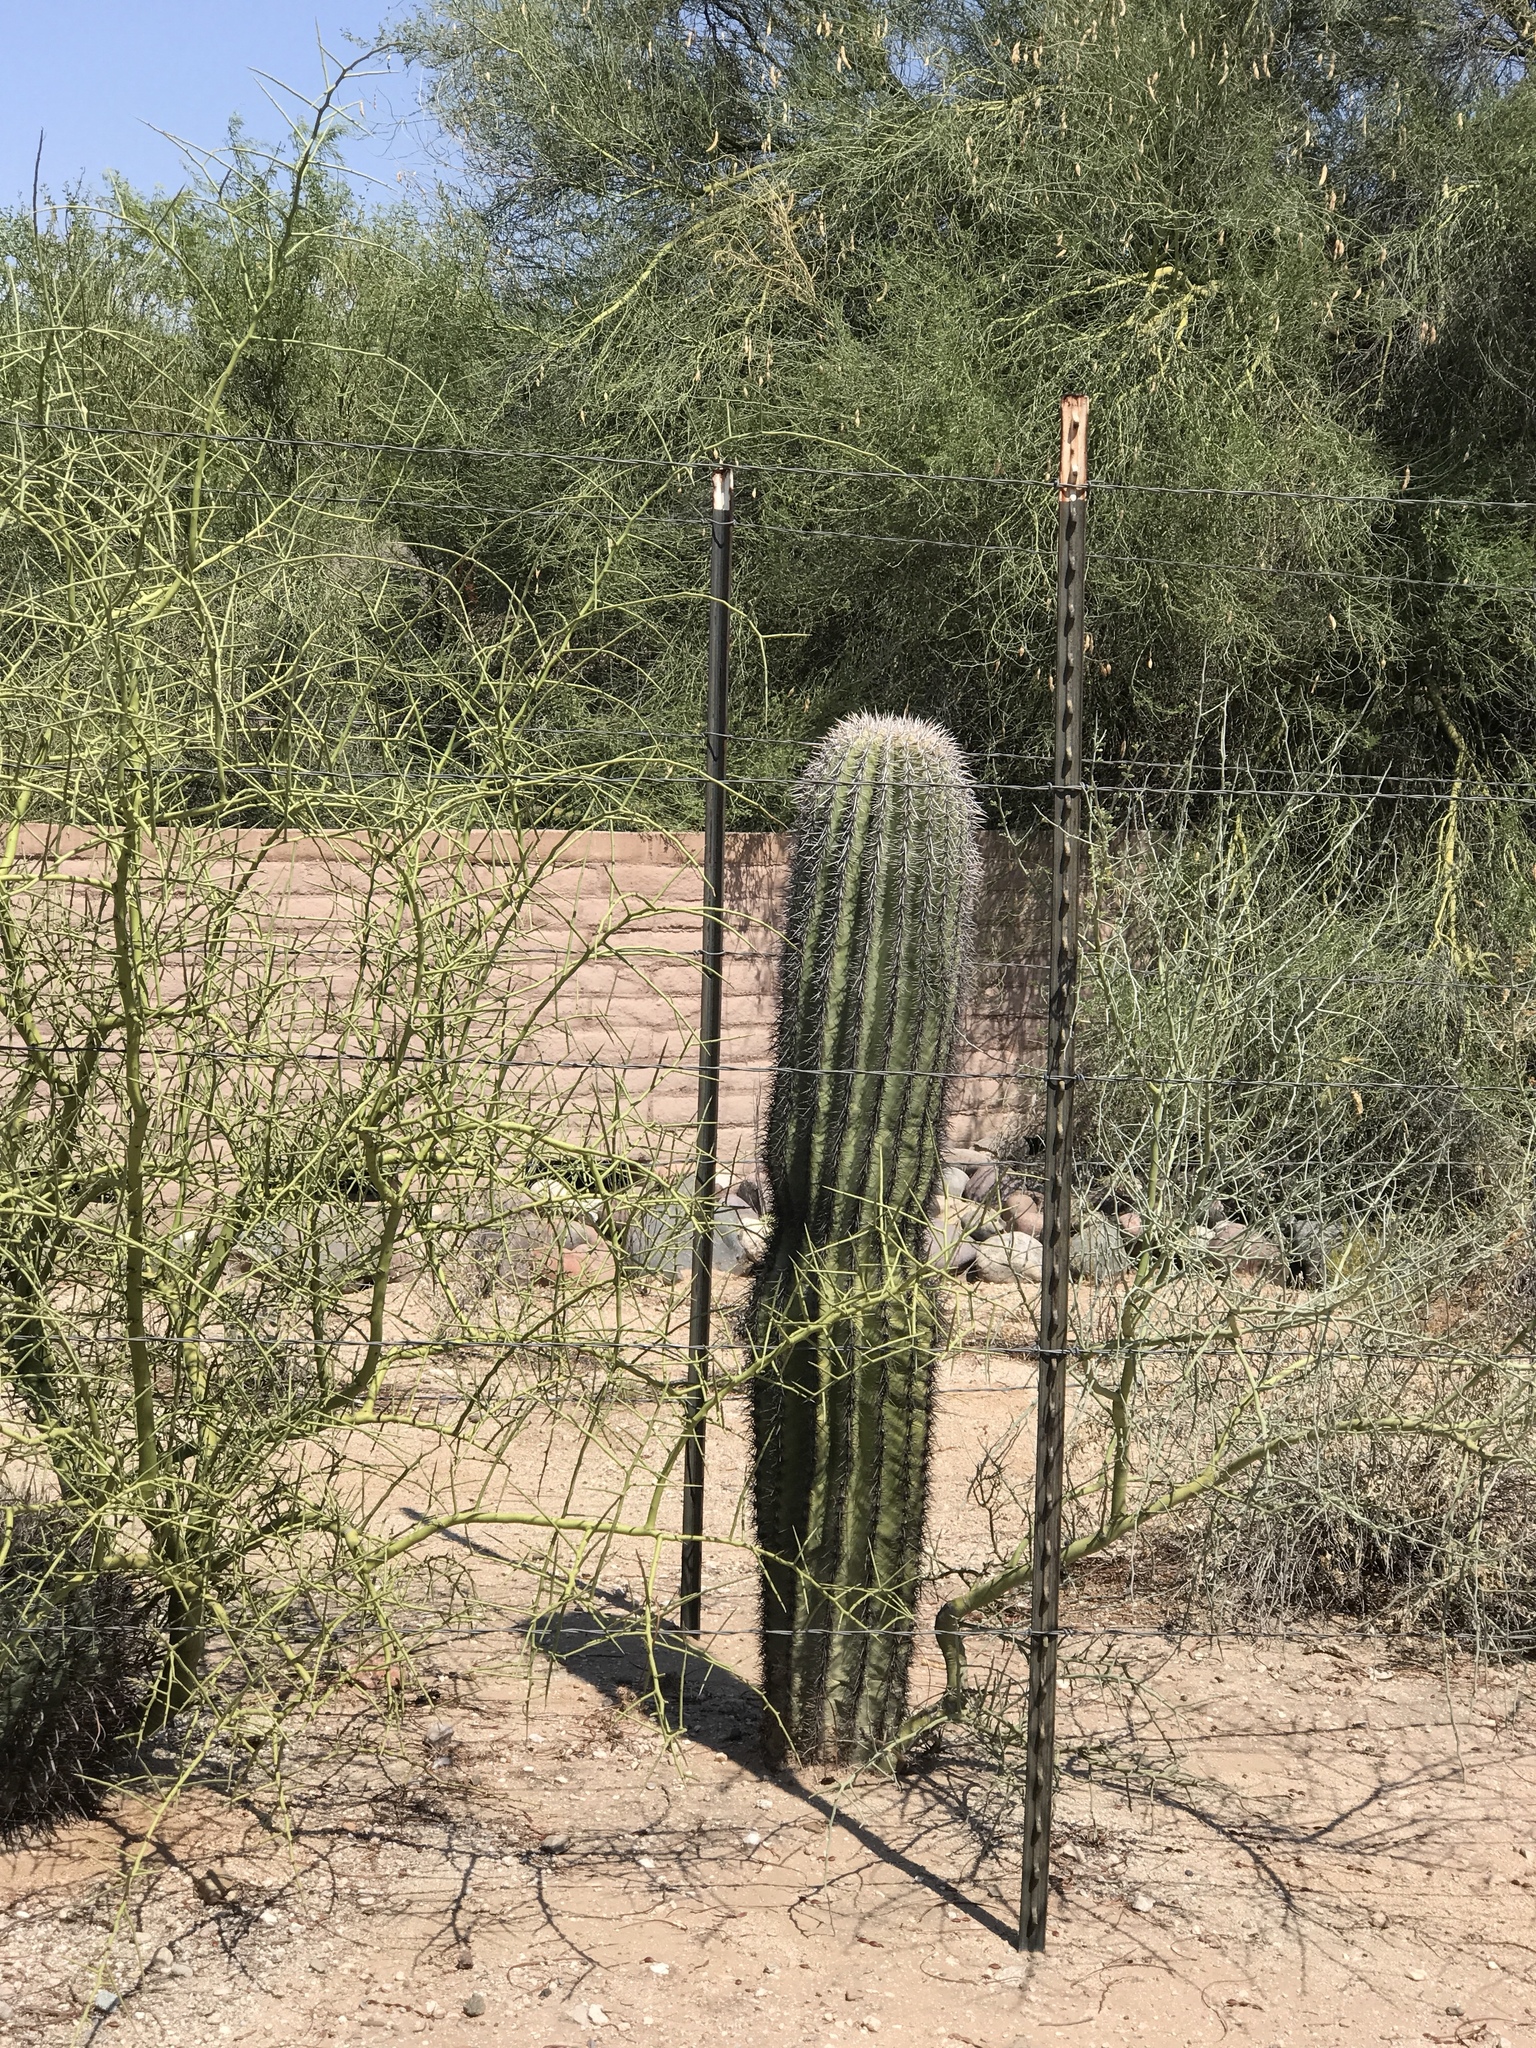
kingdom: Plantae
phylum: Tracheophyta
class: Magnoliopsida
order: Caryophyllales
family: Cactaceae
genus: Carnegiea
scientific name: Carnegiea gigantea
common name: Saguaro
